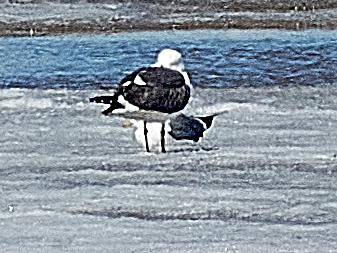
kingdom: Animalia
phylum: Chordata
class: Aves
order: Charadriiformes
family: Laridae
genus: Larus
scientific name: Larus fuscus
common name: Lesser black-backed gull
